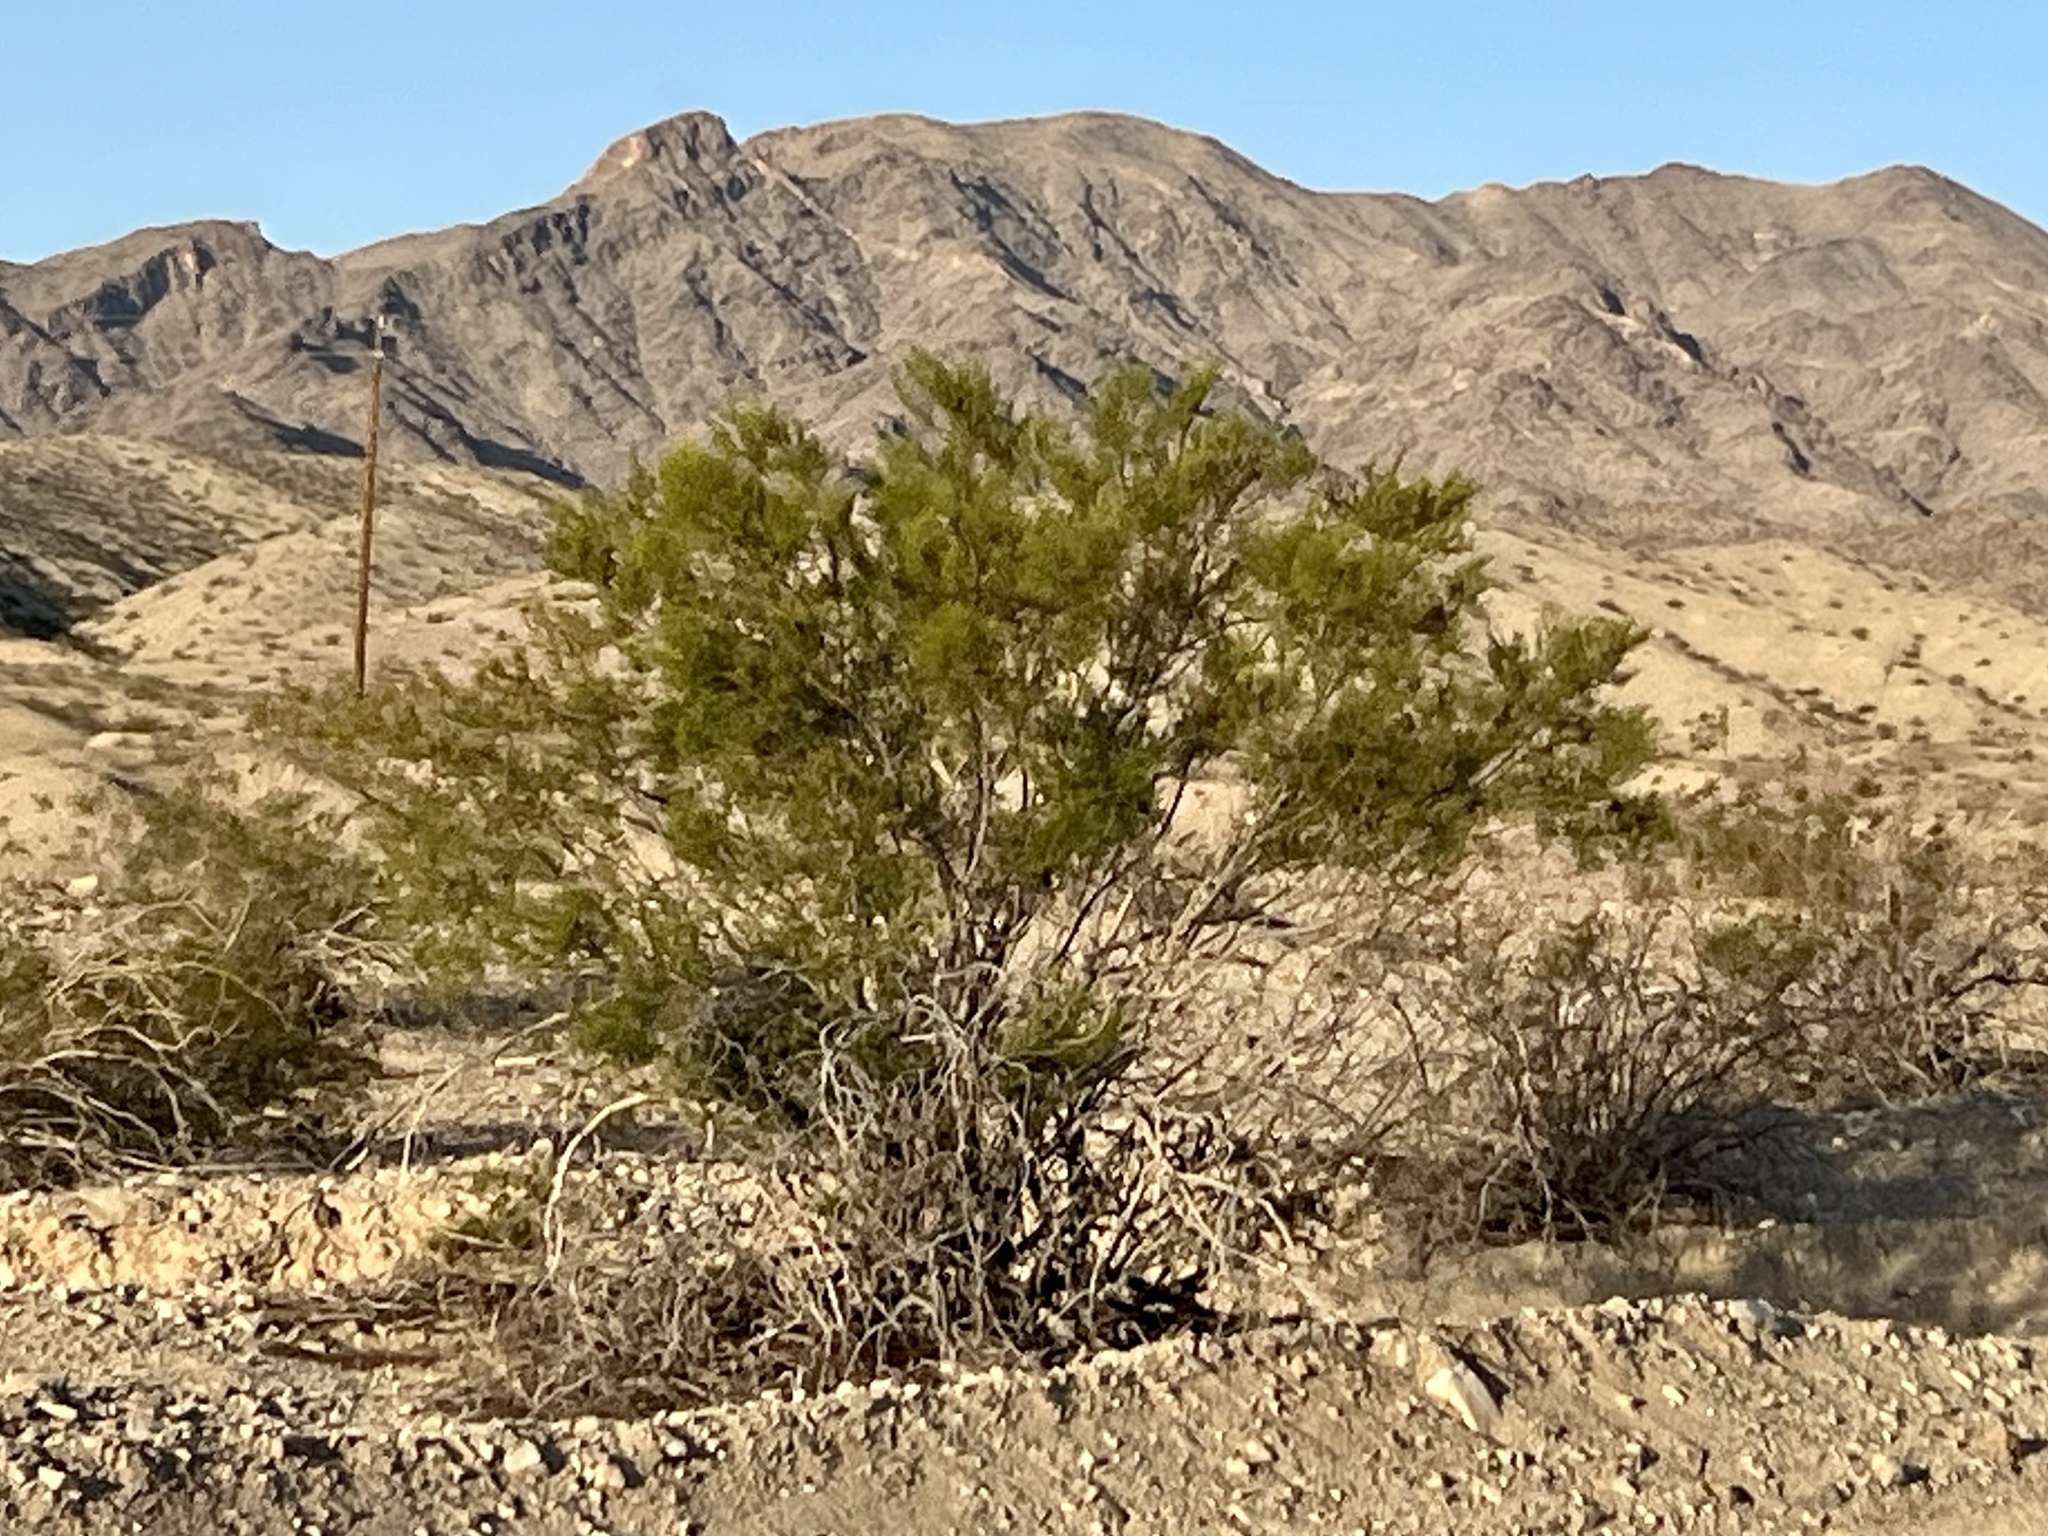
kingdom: Plantae
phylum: Tracheophyta
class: Magnoliopsida
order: Zygophyllales
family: Zygophyllaceae
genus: Larrea
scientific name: Larrea tridentata
